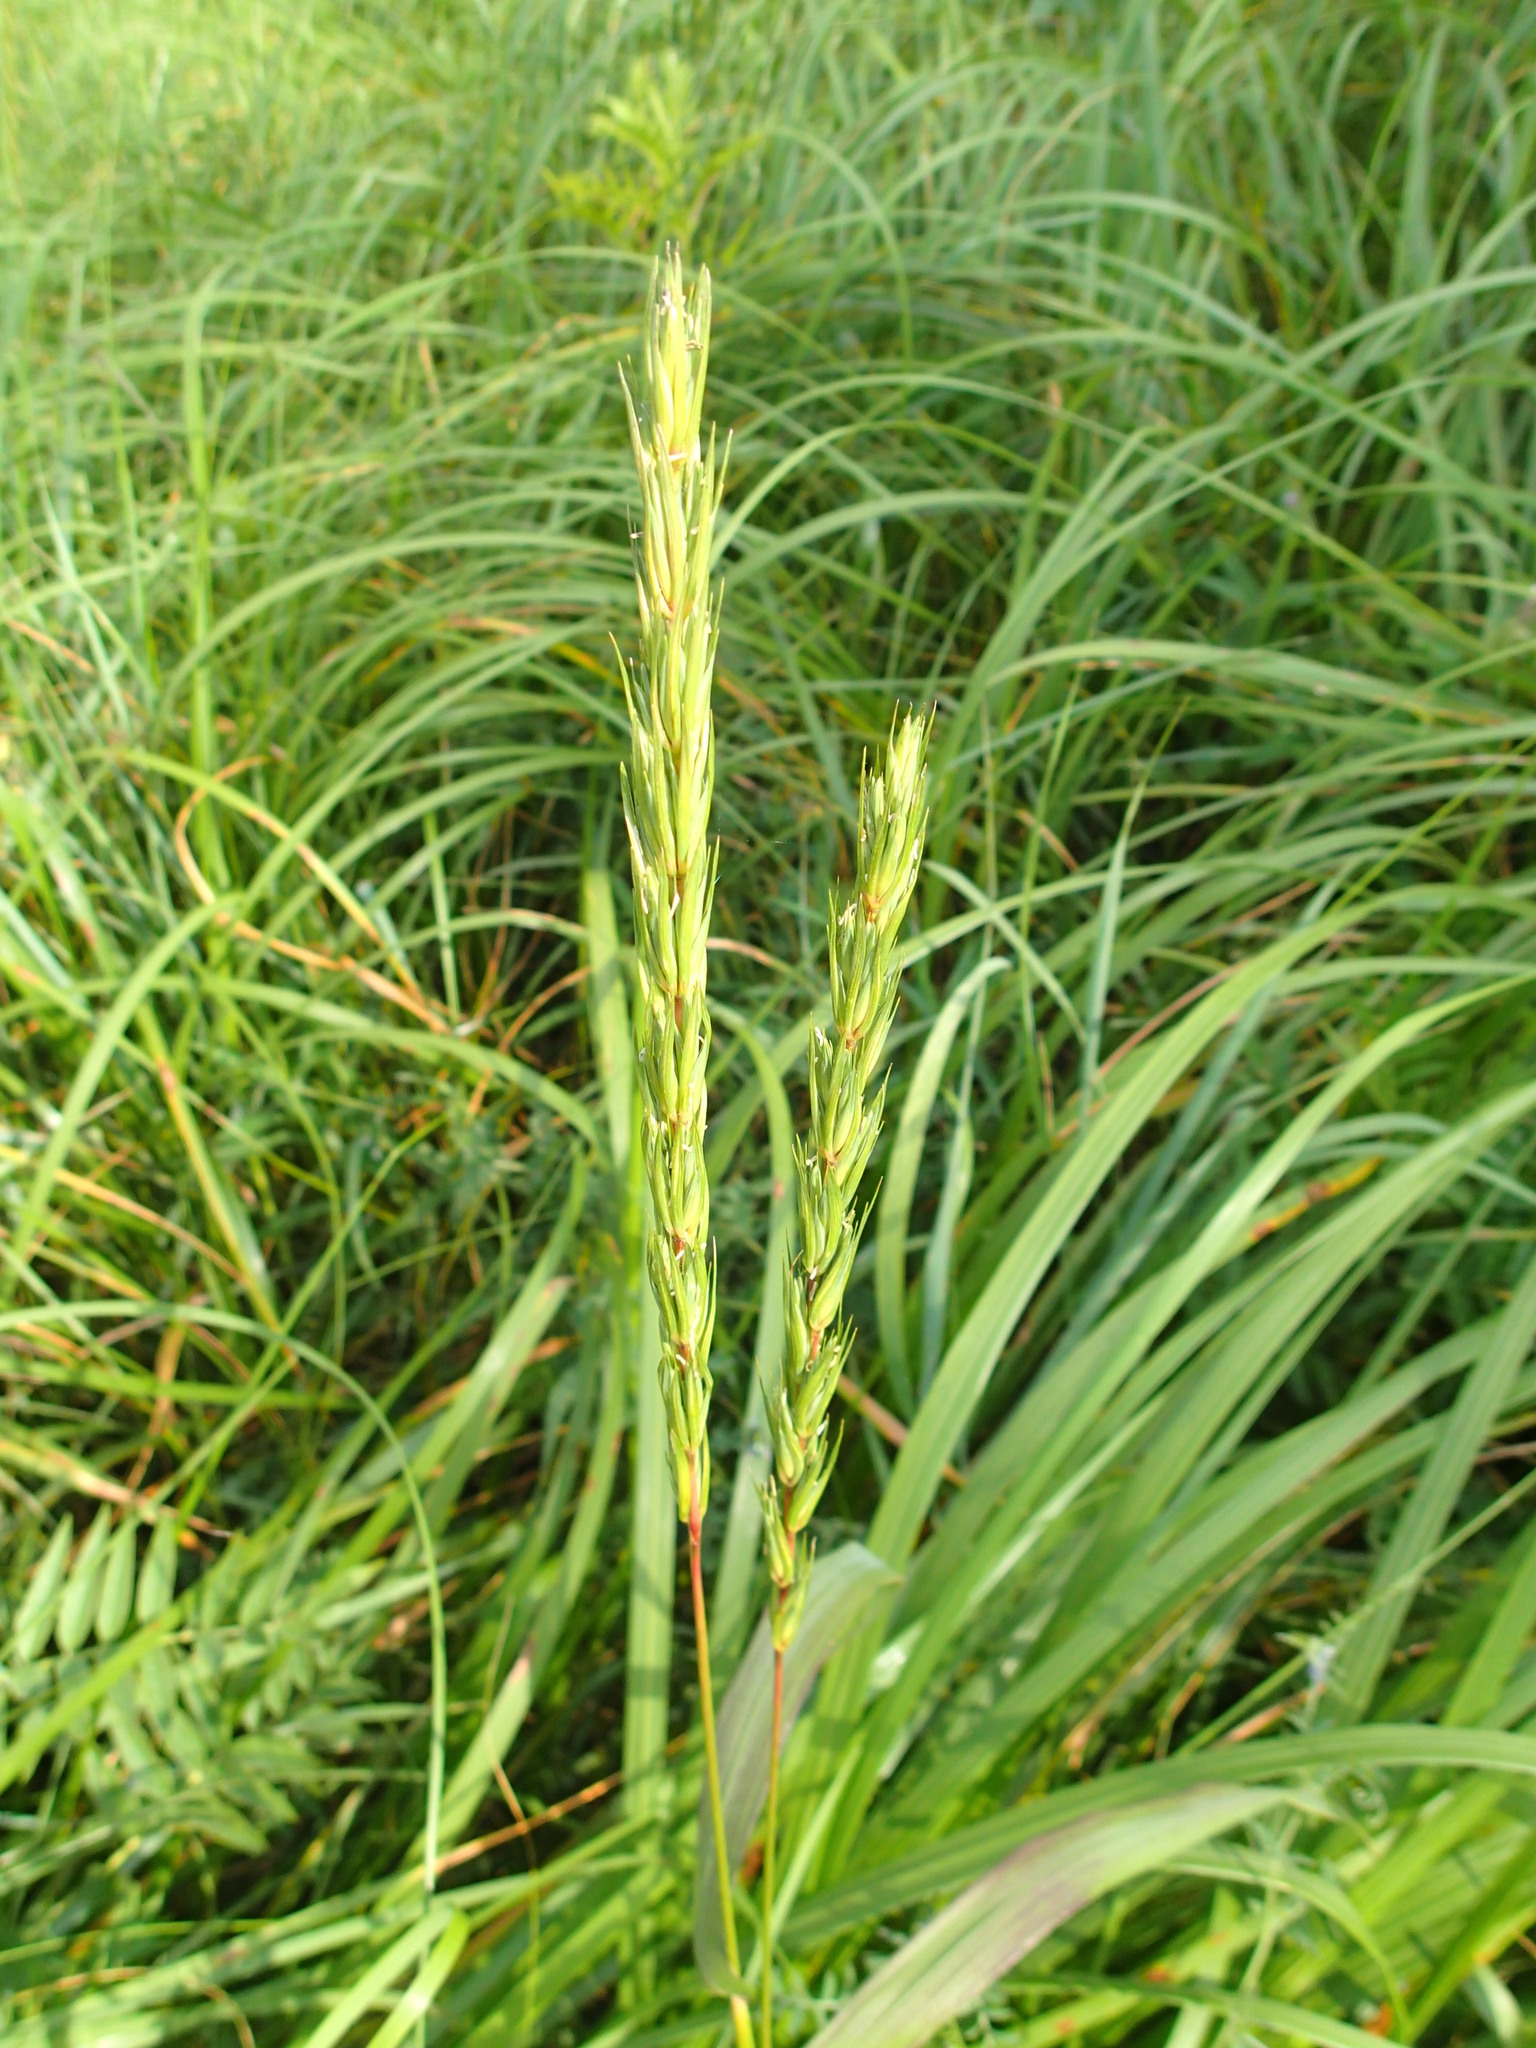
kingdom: Plantae
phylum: Tracheophyta
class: Liliopsida
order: Poales
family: Poaceae
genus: Elymus
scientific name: Elymus virginicus
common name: Common eastern wildrye
